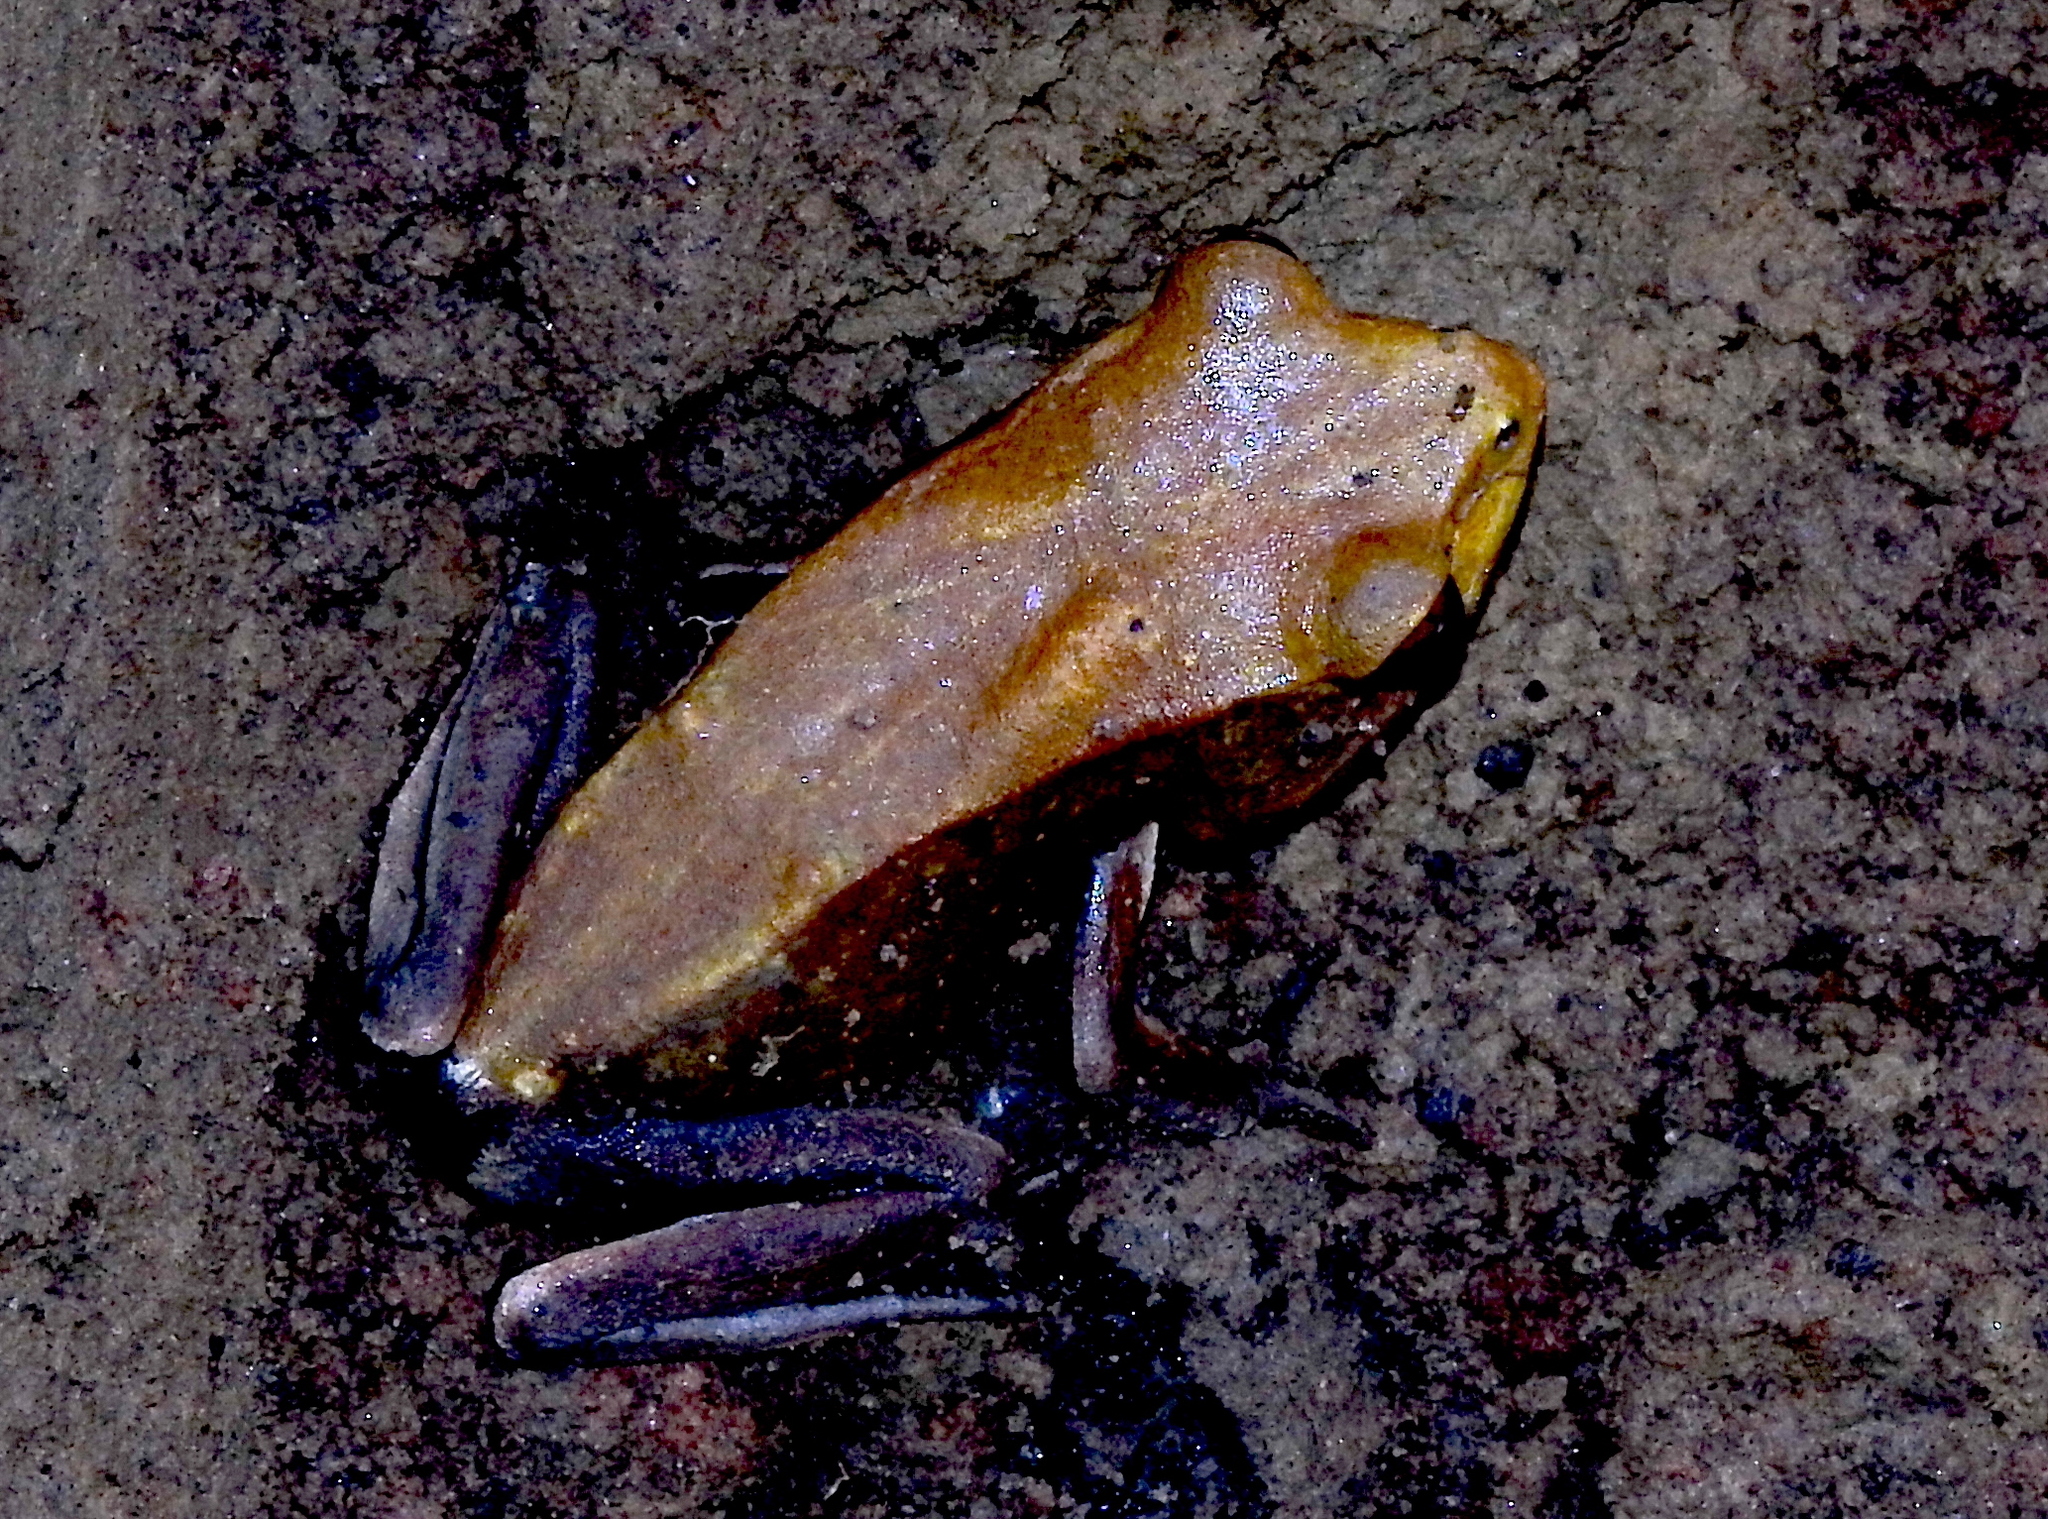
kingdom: Animalia
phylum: Chordata
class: Amphibia
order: Anura
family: Ranidae
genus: Clinotarsus
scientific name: Clinotarsus curtipes
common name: Bicoloured frog
